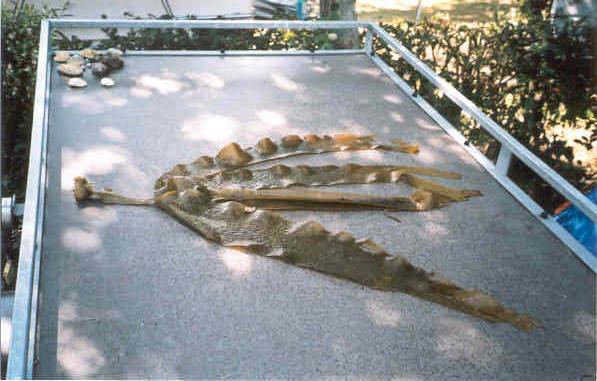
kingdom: Chromista
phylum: Ochrophyta
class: Phaeophyceae
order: Tilopteridales
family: Phyllariaceae
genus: Saccorhiza
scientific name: Saccorhiza polyschides
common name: Furbelows
